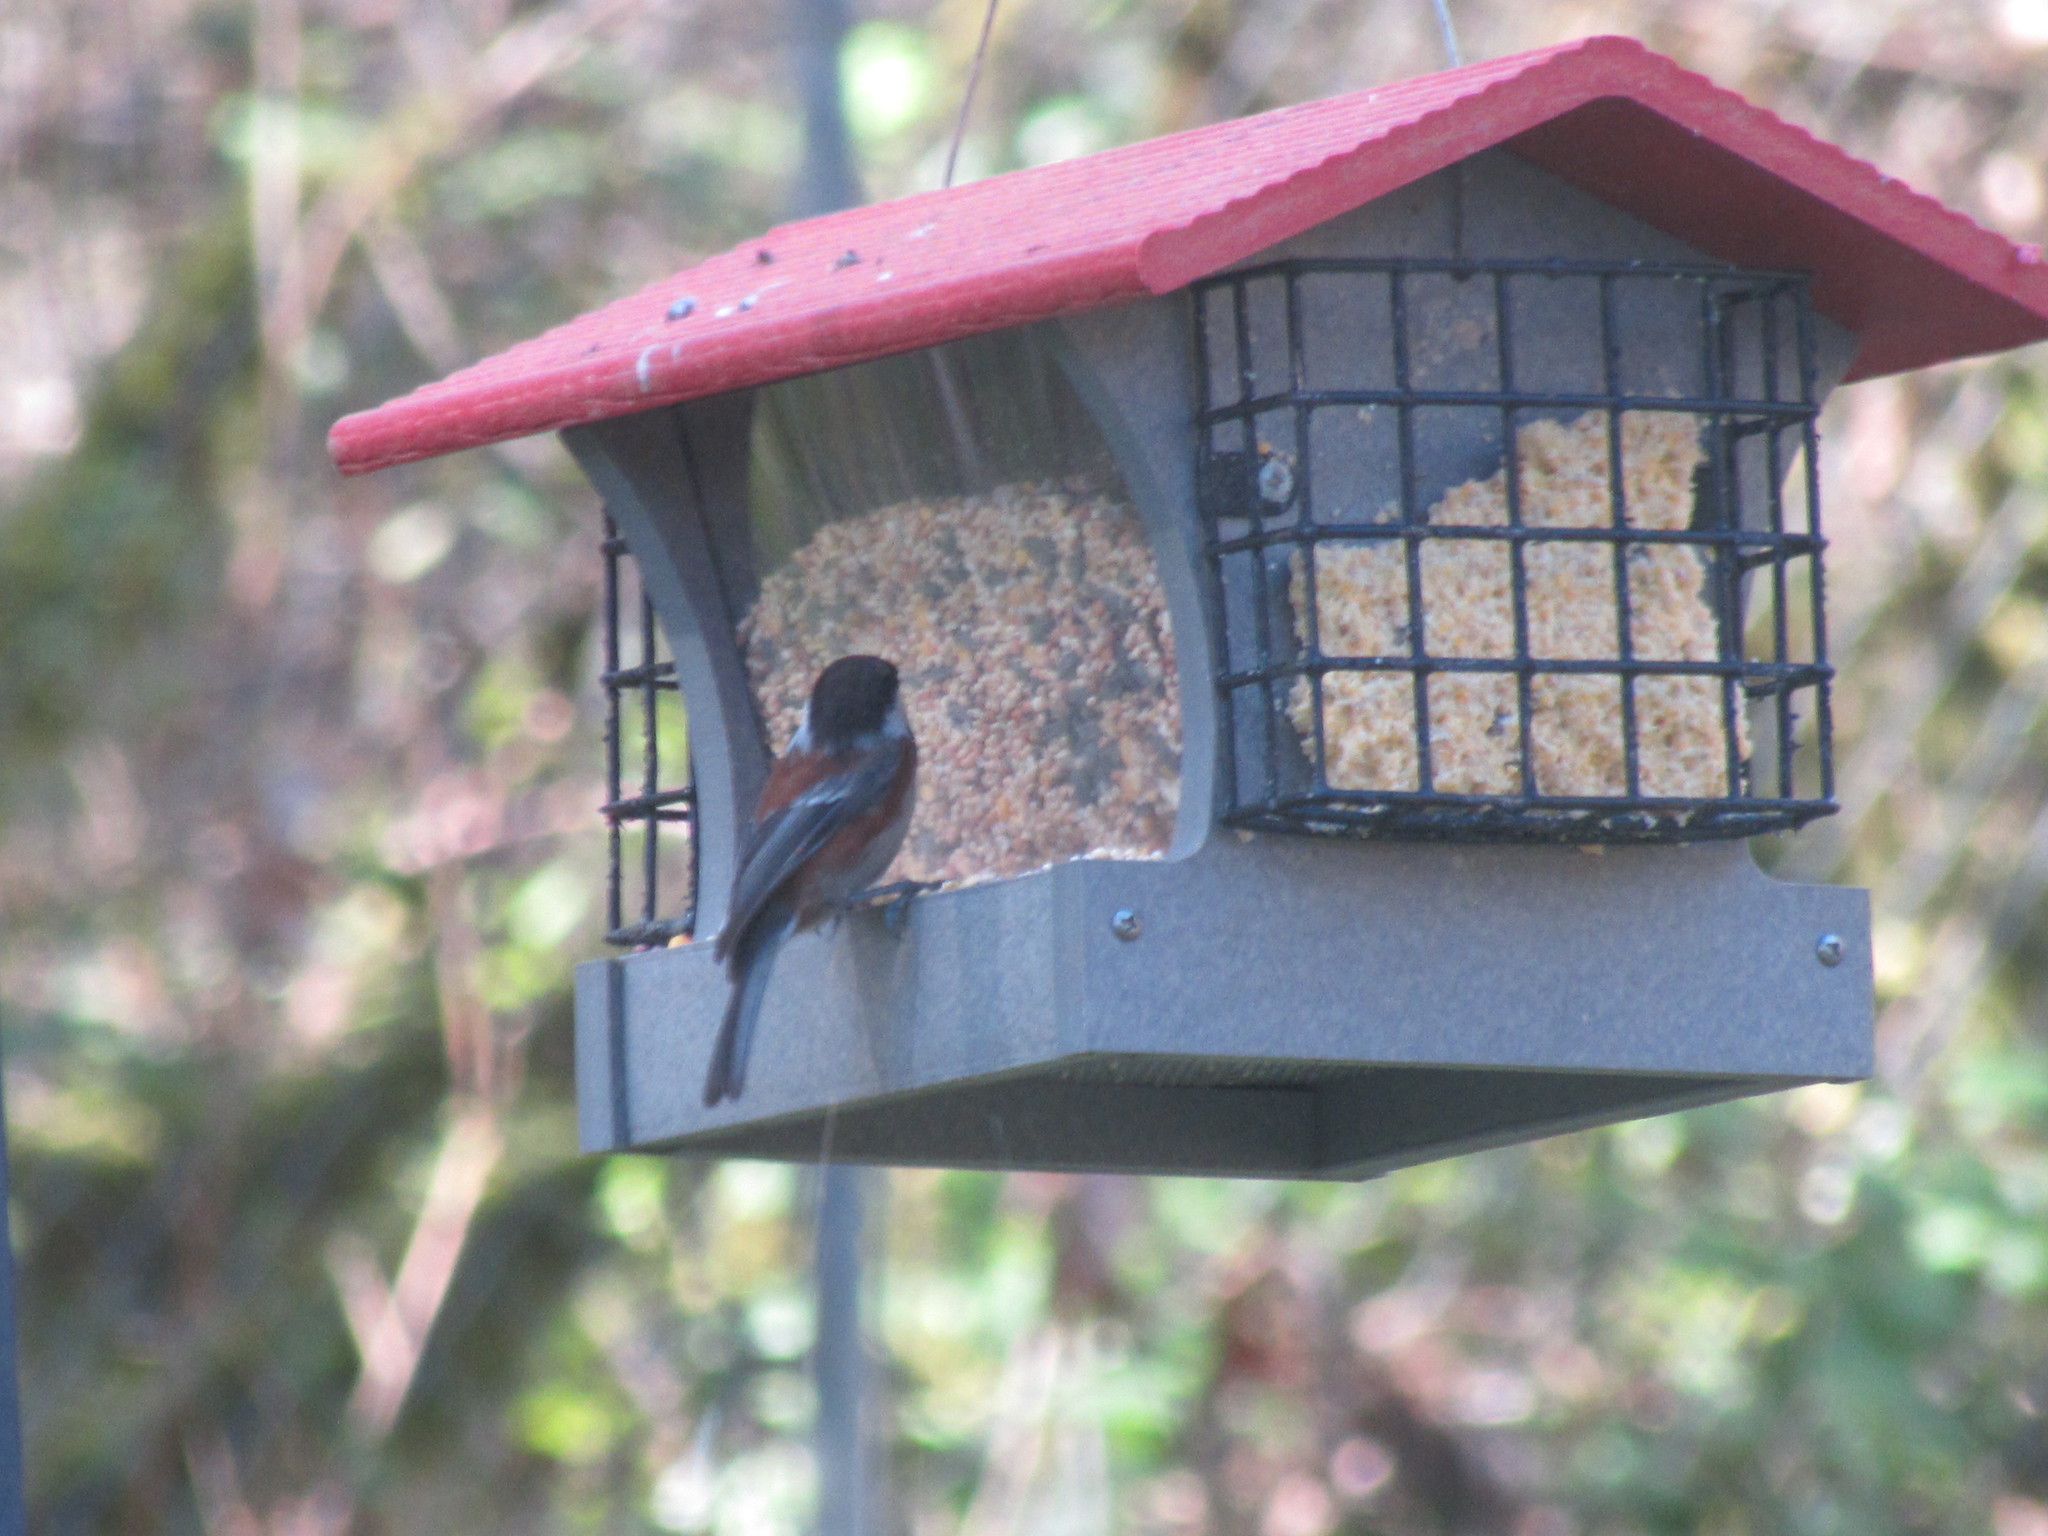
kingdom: Animalia
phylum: Chordata
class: Aves
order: Passeriformes
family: Paridae
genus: Poecile
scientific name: Poecile rufescens
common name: Chestnut-backed chickadee
